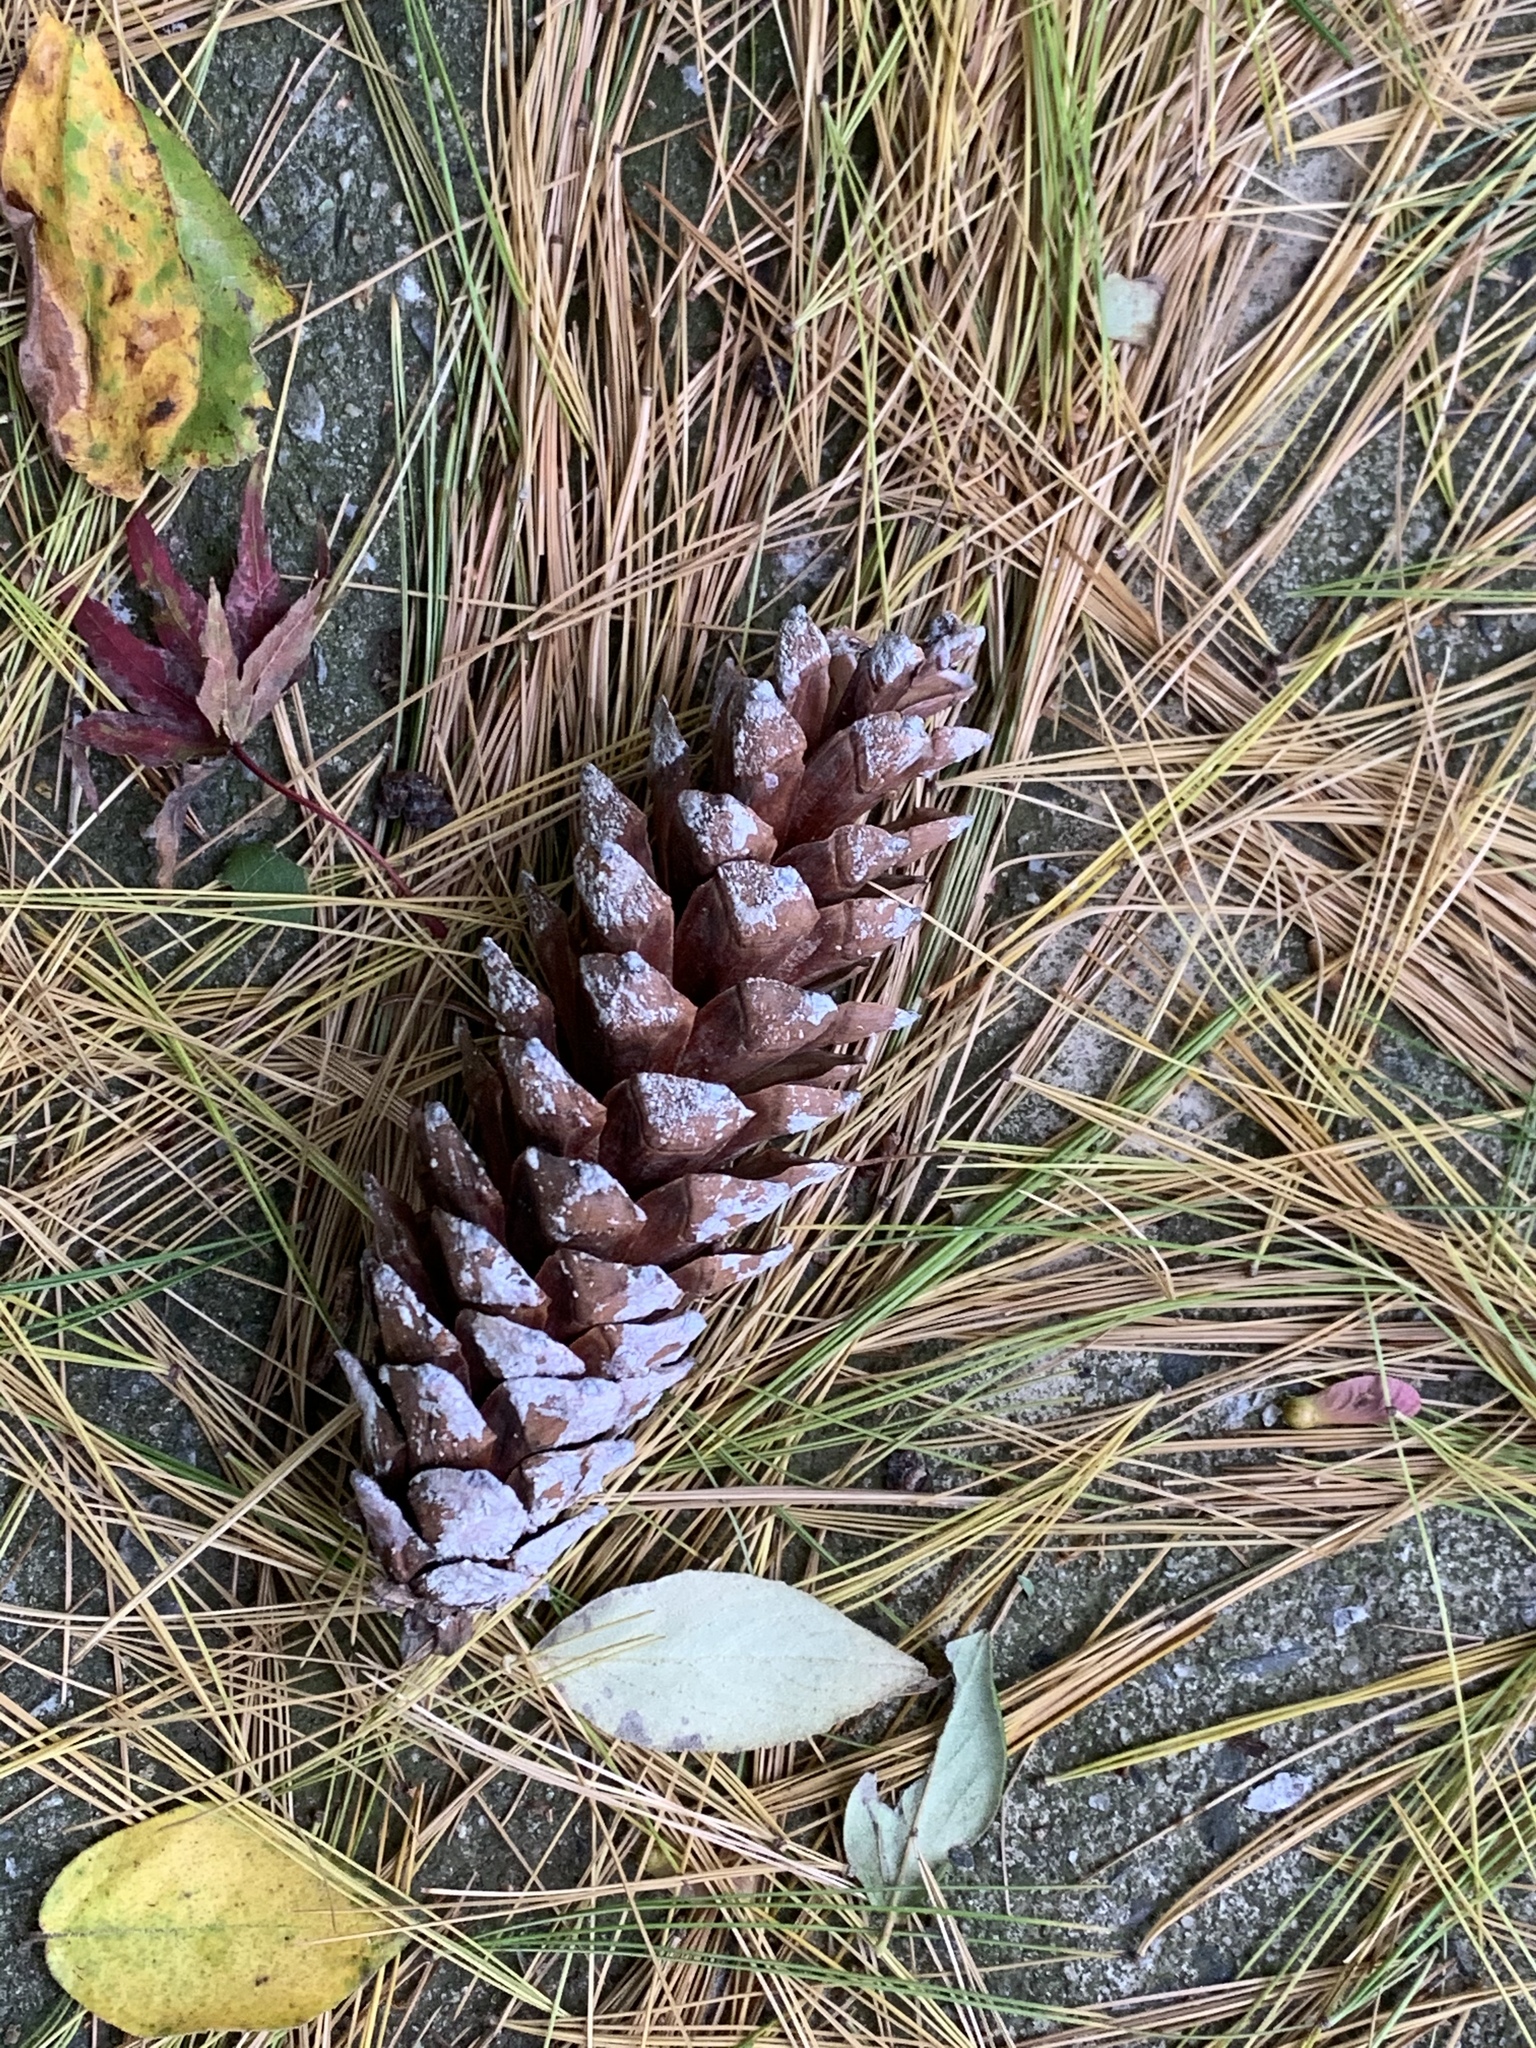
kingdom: Plantae
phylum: Tracheophyta
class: Pinopsida
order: Pinales
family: Pinaceae
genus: Pinus
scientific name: Pinus strobus
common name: Weymouth pine
